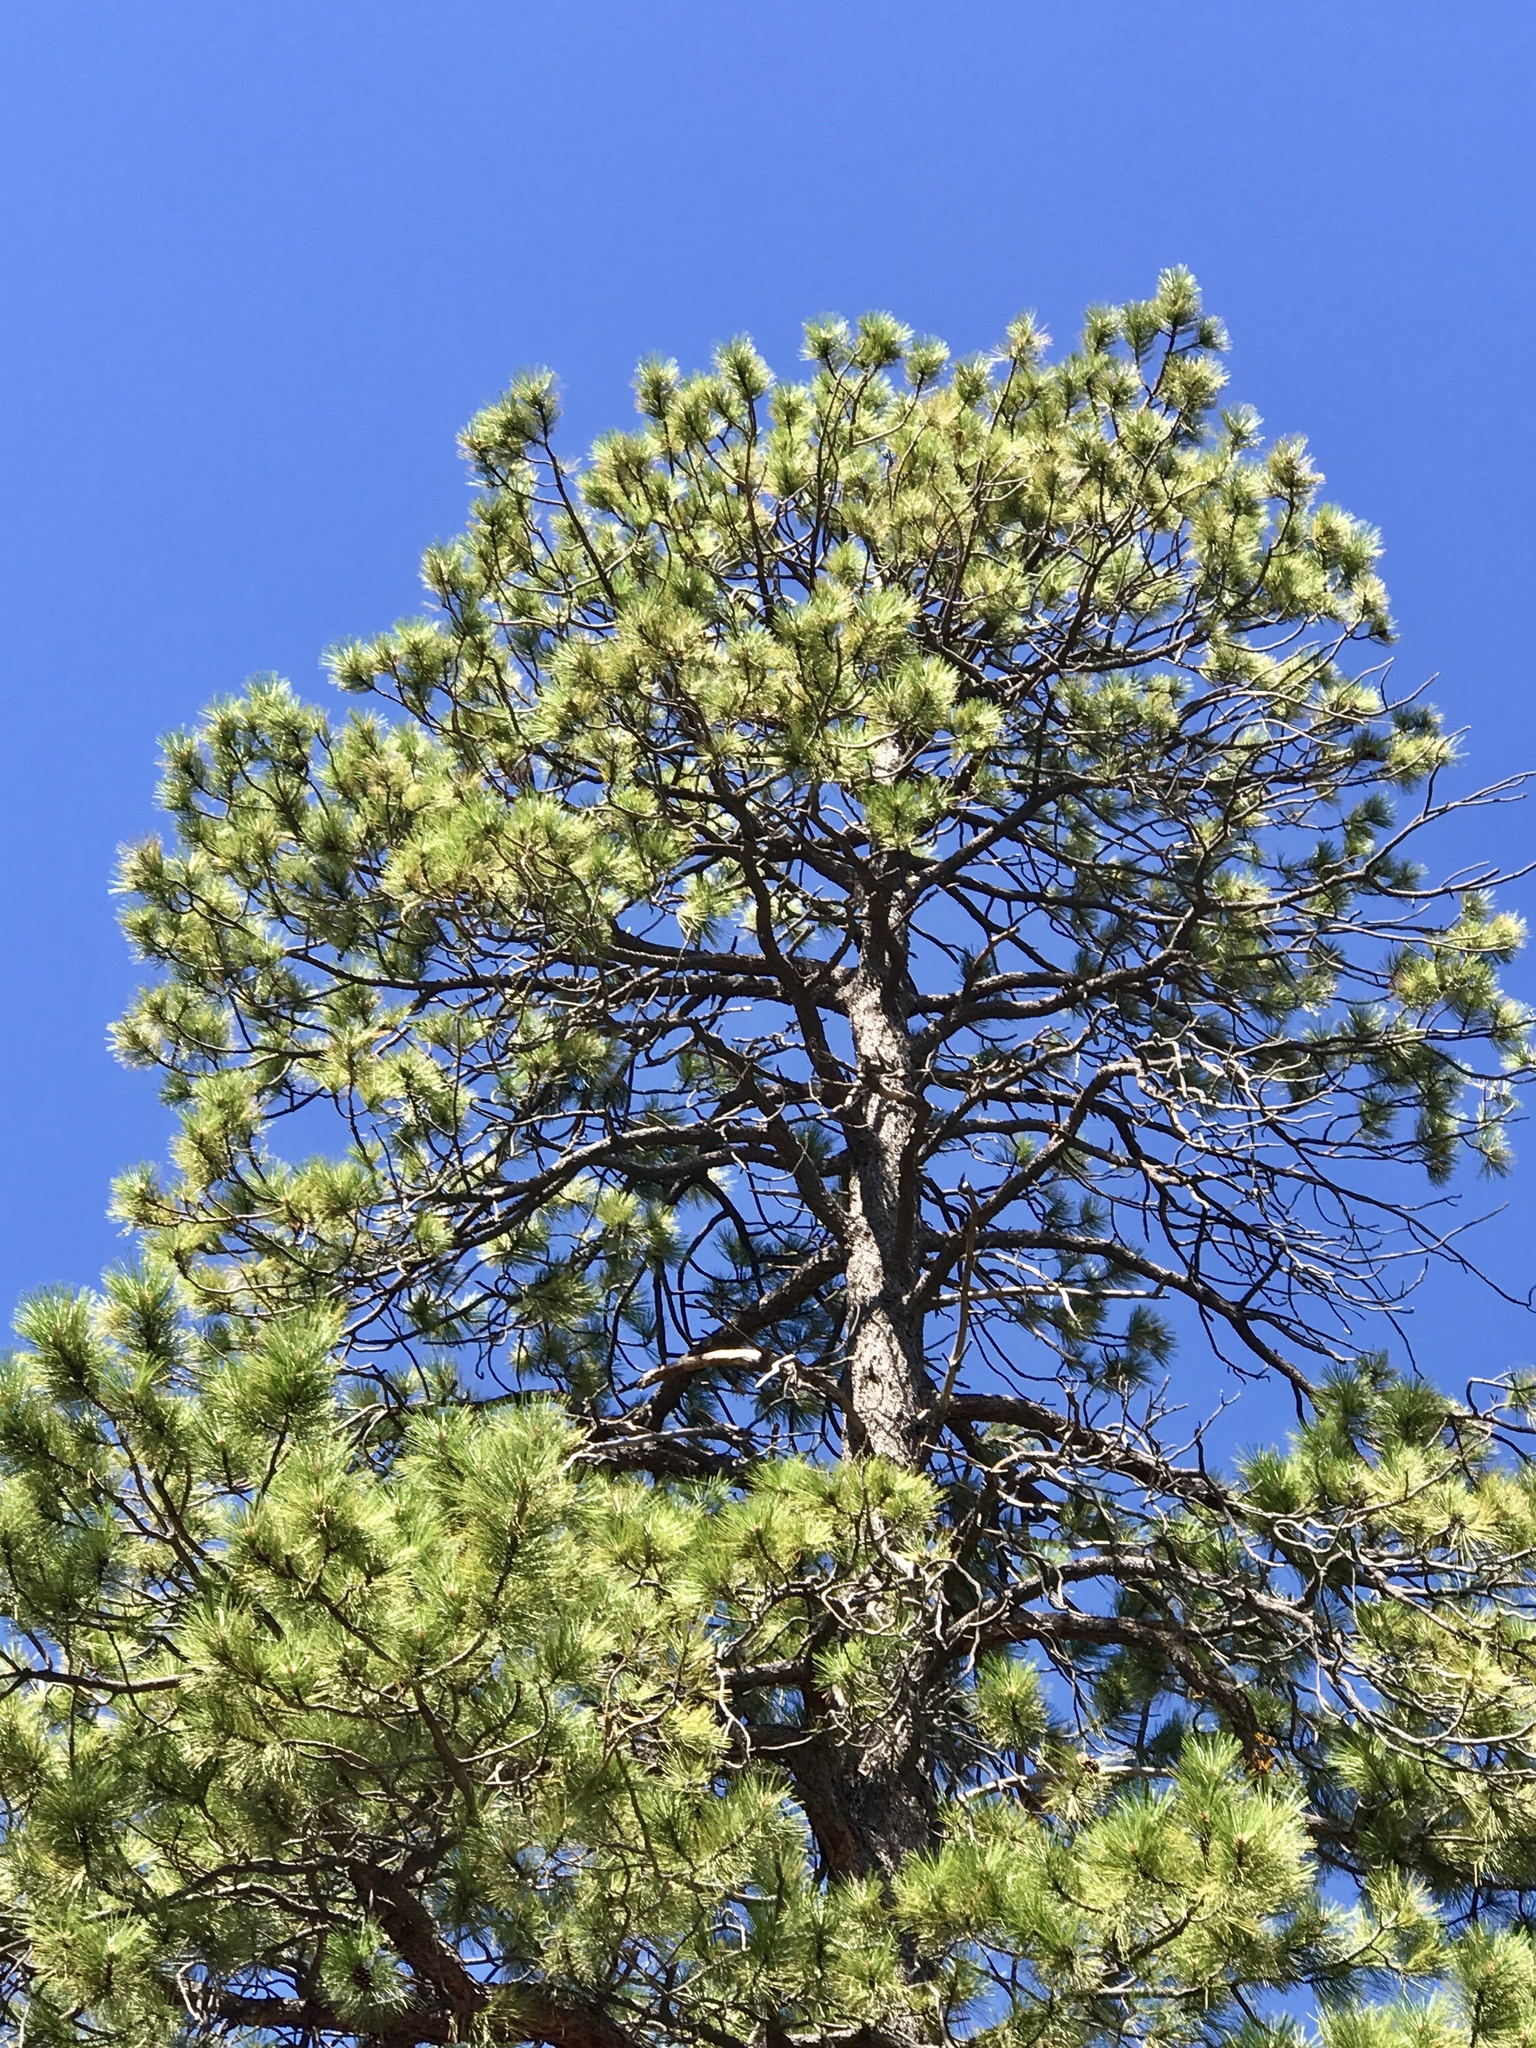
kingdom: Plantae
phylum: Tracheophyta
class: Pinopsida
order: Pinales
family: Pinaceae
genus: Pinus
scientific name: Pinus ponderosa
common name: Western yellow-pine
